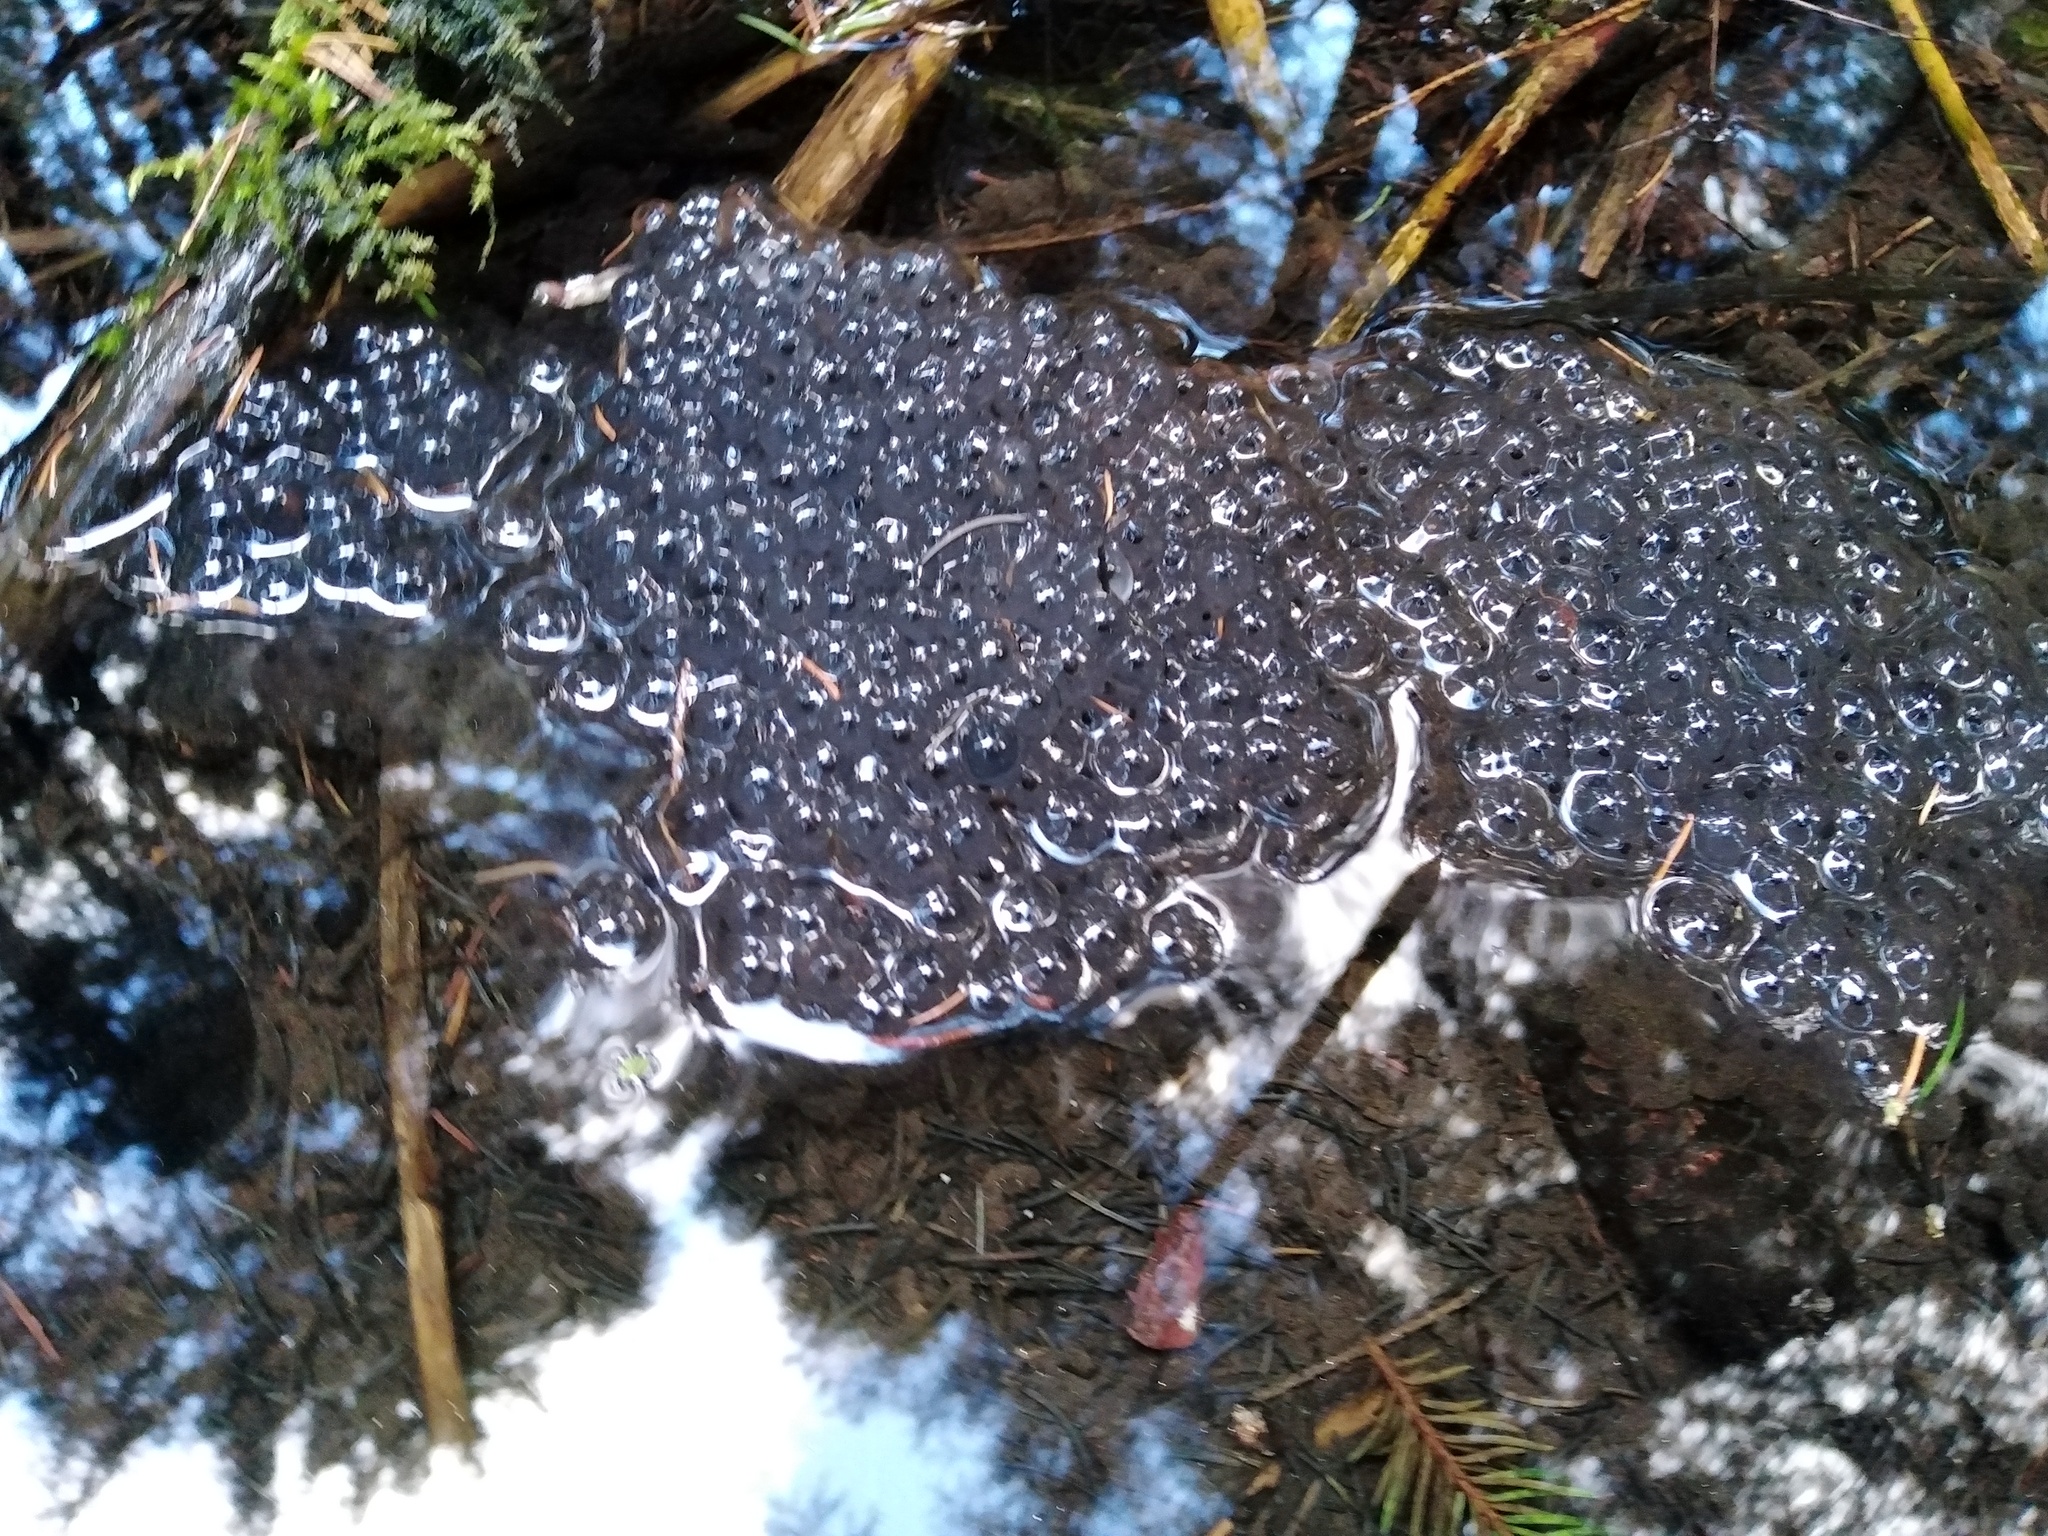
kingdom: Animalia
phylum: Chordata
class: Amphibia
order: Anura
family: Ranidae
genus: Rana
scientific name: Rana temporaria
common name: Common frog
